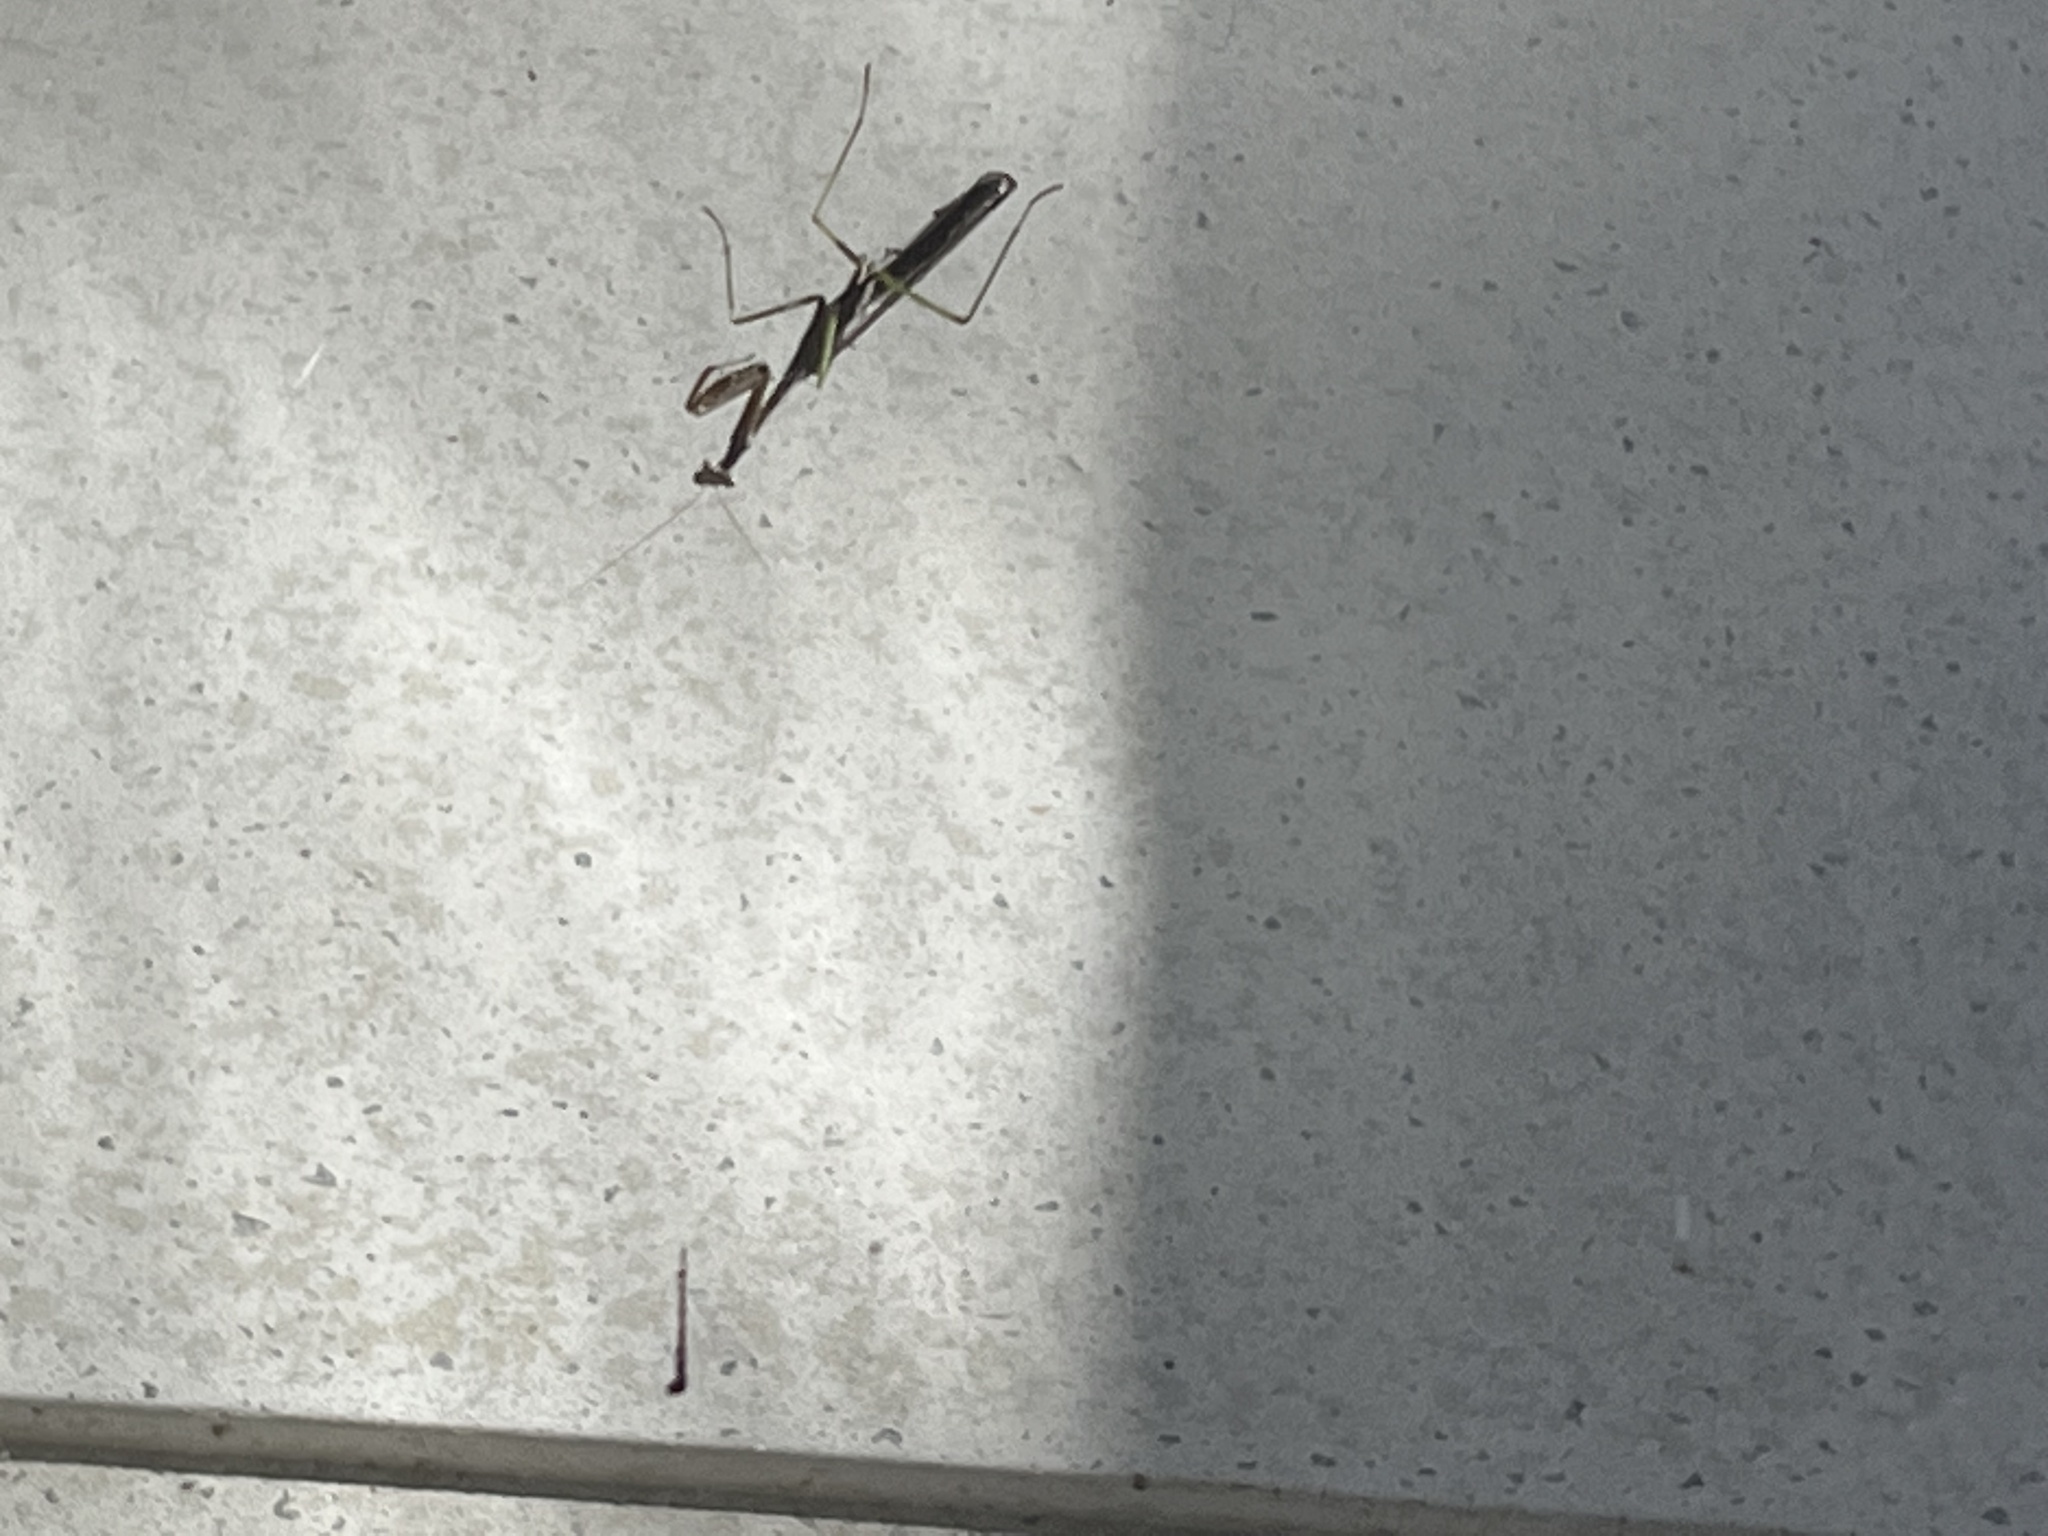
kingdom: Animalia
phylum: Arthropoda
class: Insecta
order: Mantodea
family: Mantidae
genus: Stagmomantis
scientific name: Stagmomantis carolina
